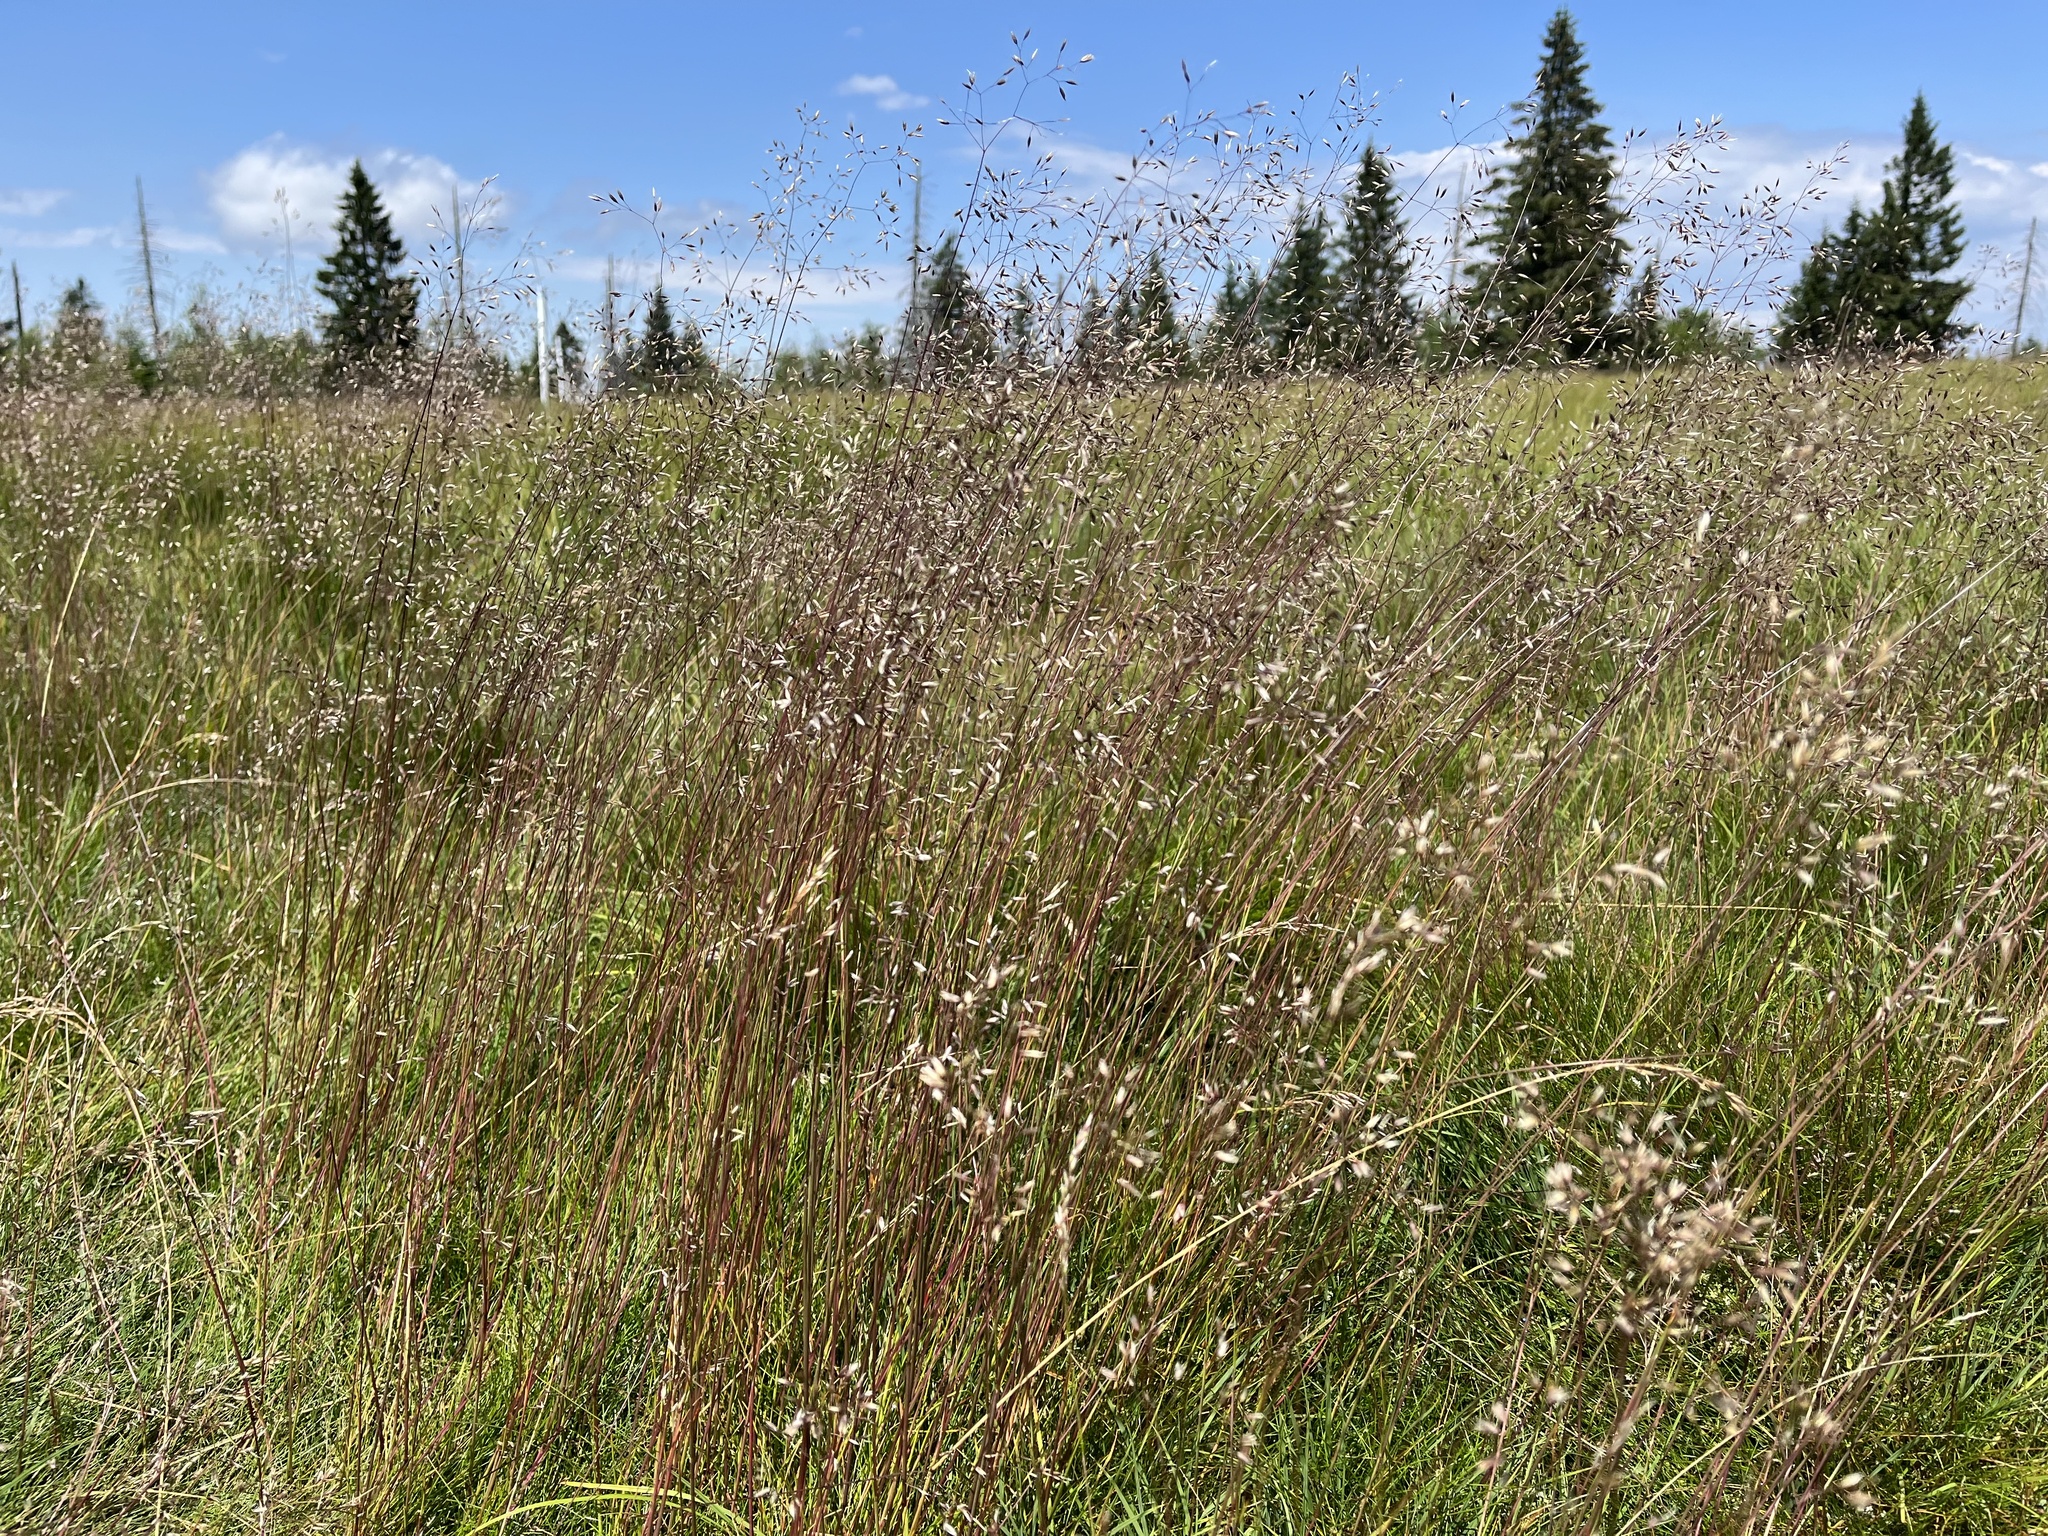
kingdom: Plantae
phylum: Tracheophyta
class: Liliopsida
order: Poales
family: Poaceae
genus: Avenella
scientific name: Avenella flexuosa
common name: Wavy hairgrass
